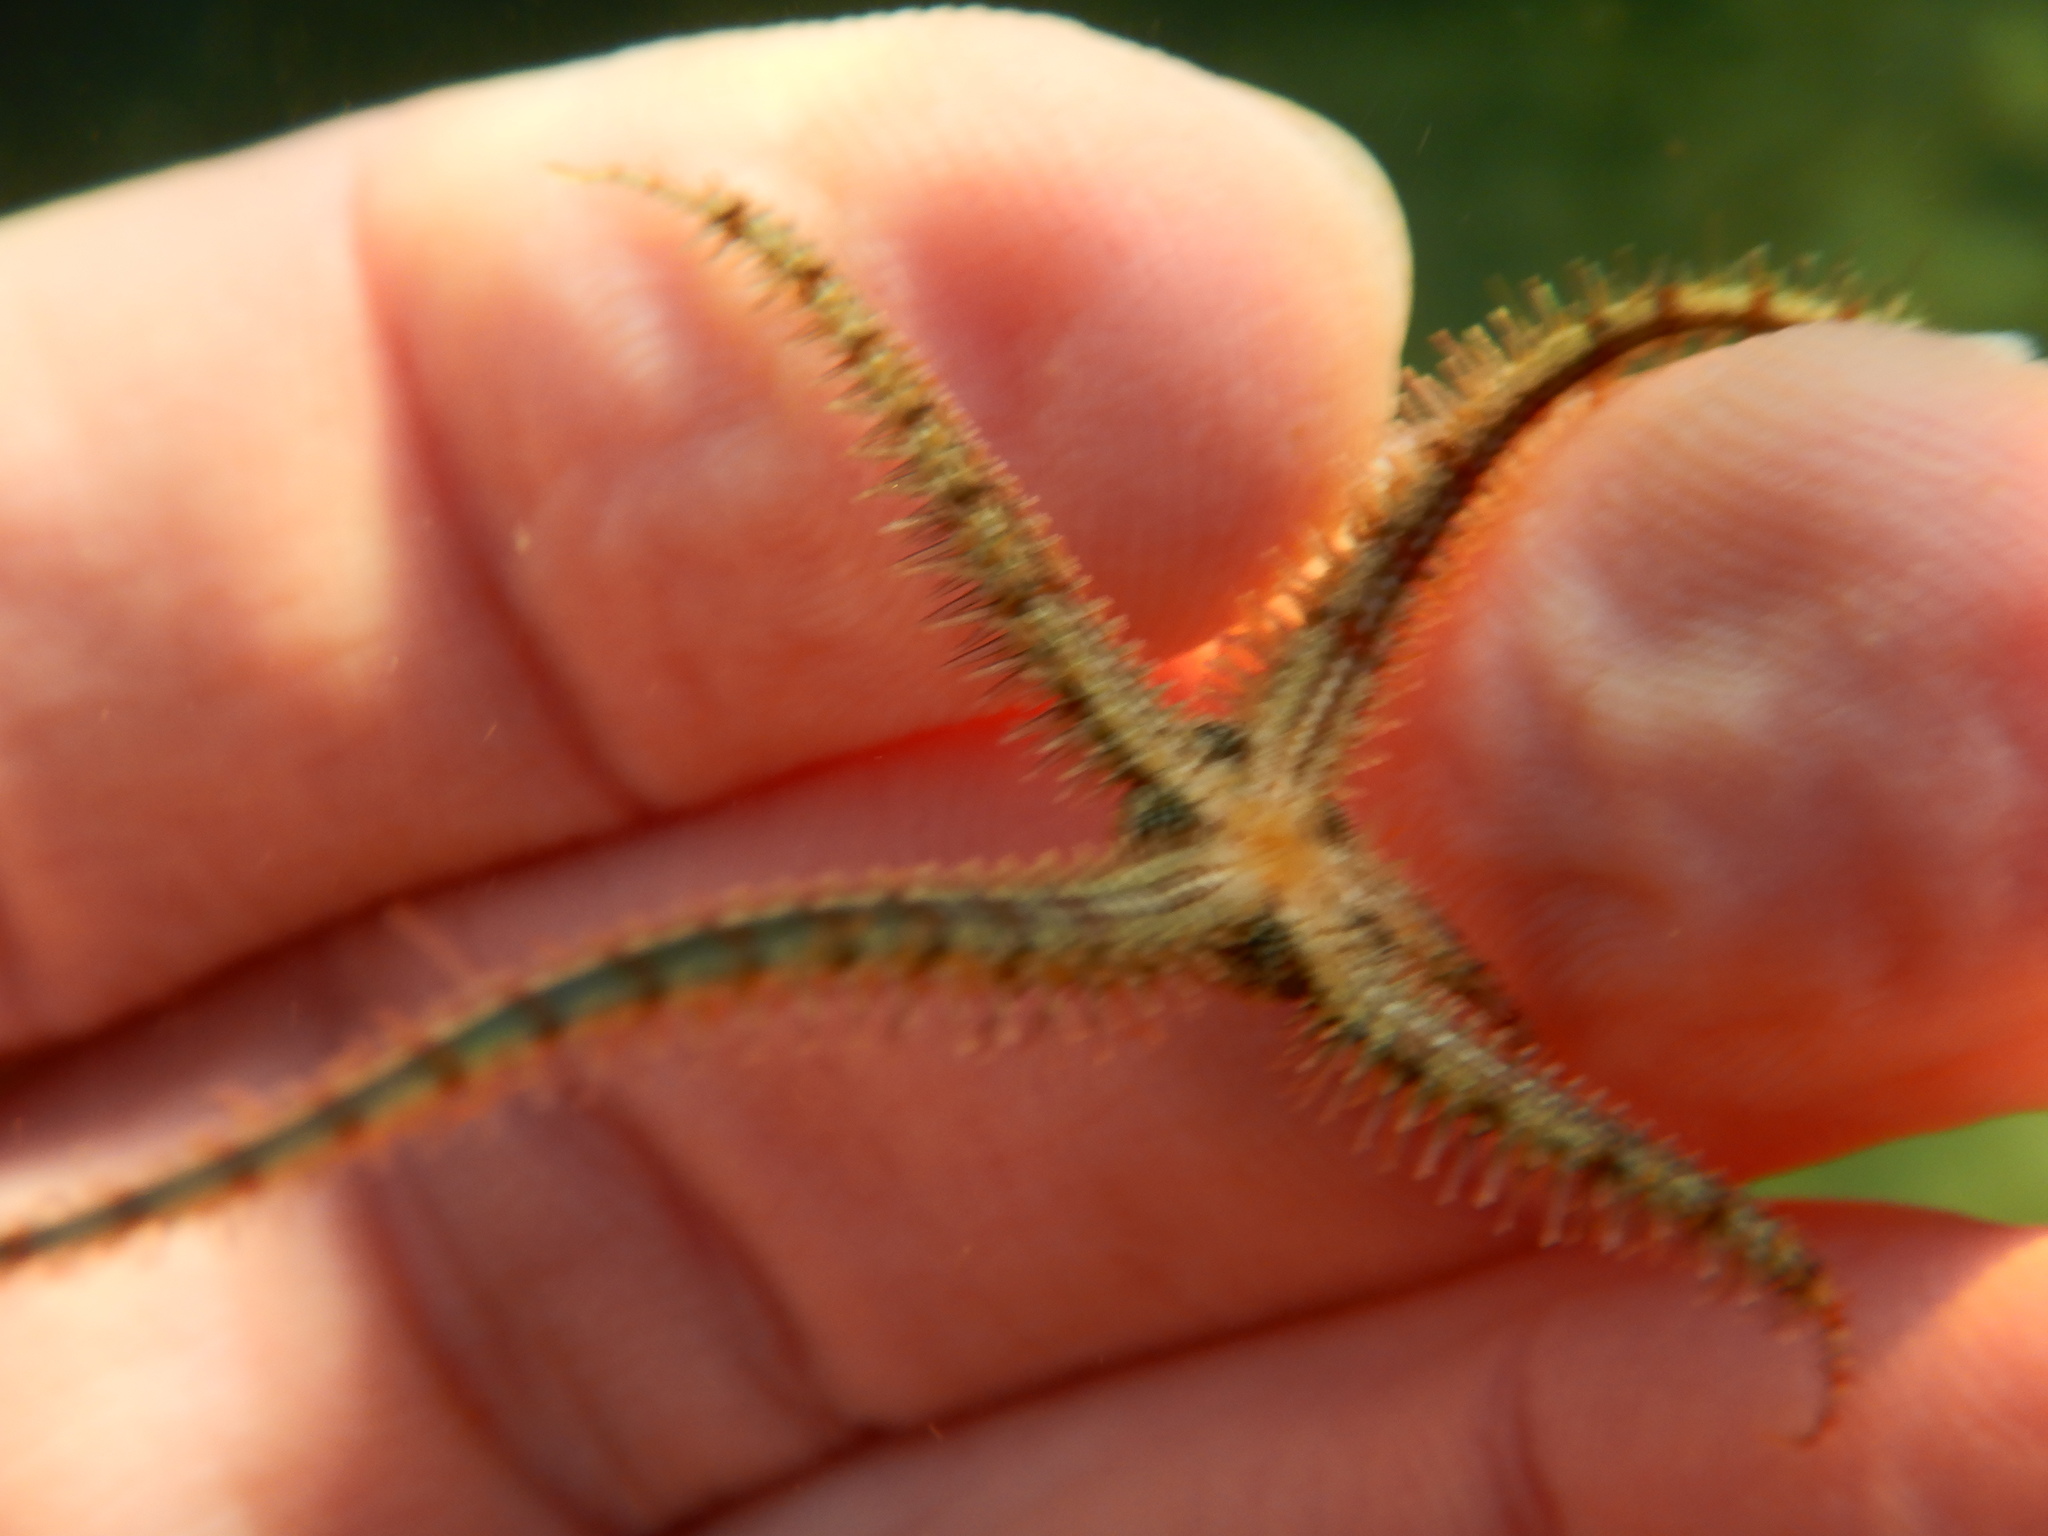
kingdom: Animalia
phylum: Echinodermata
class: Ophiuroidea
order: Amphilepidida
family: Ophiotrichidae
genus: Ophiothrix
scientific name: Ophiothrix fragilis
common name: Common brittlestar
